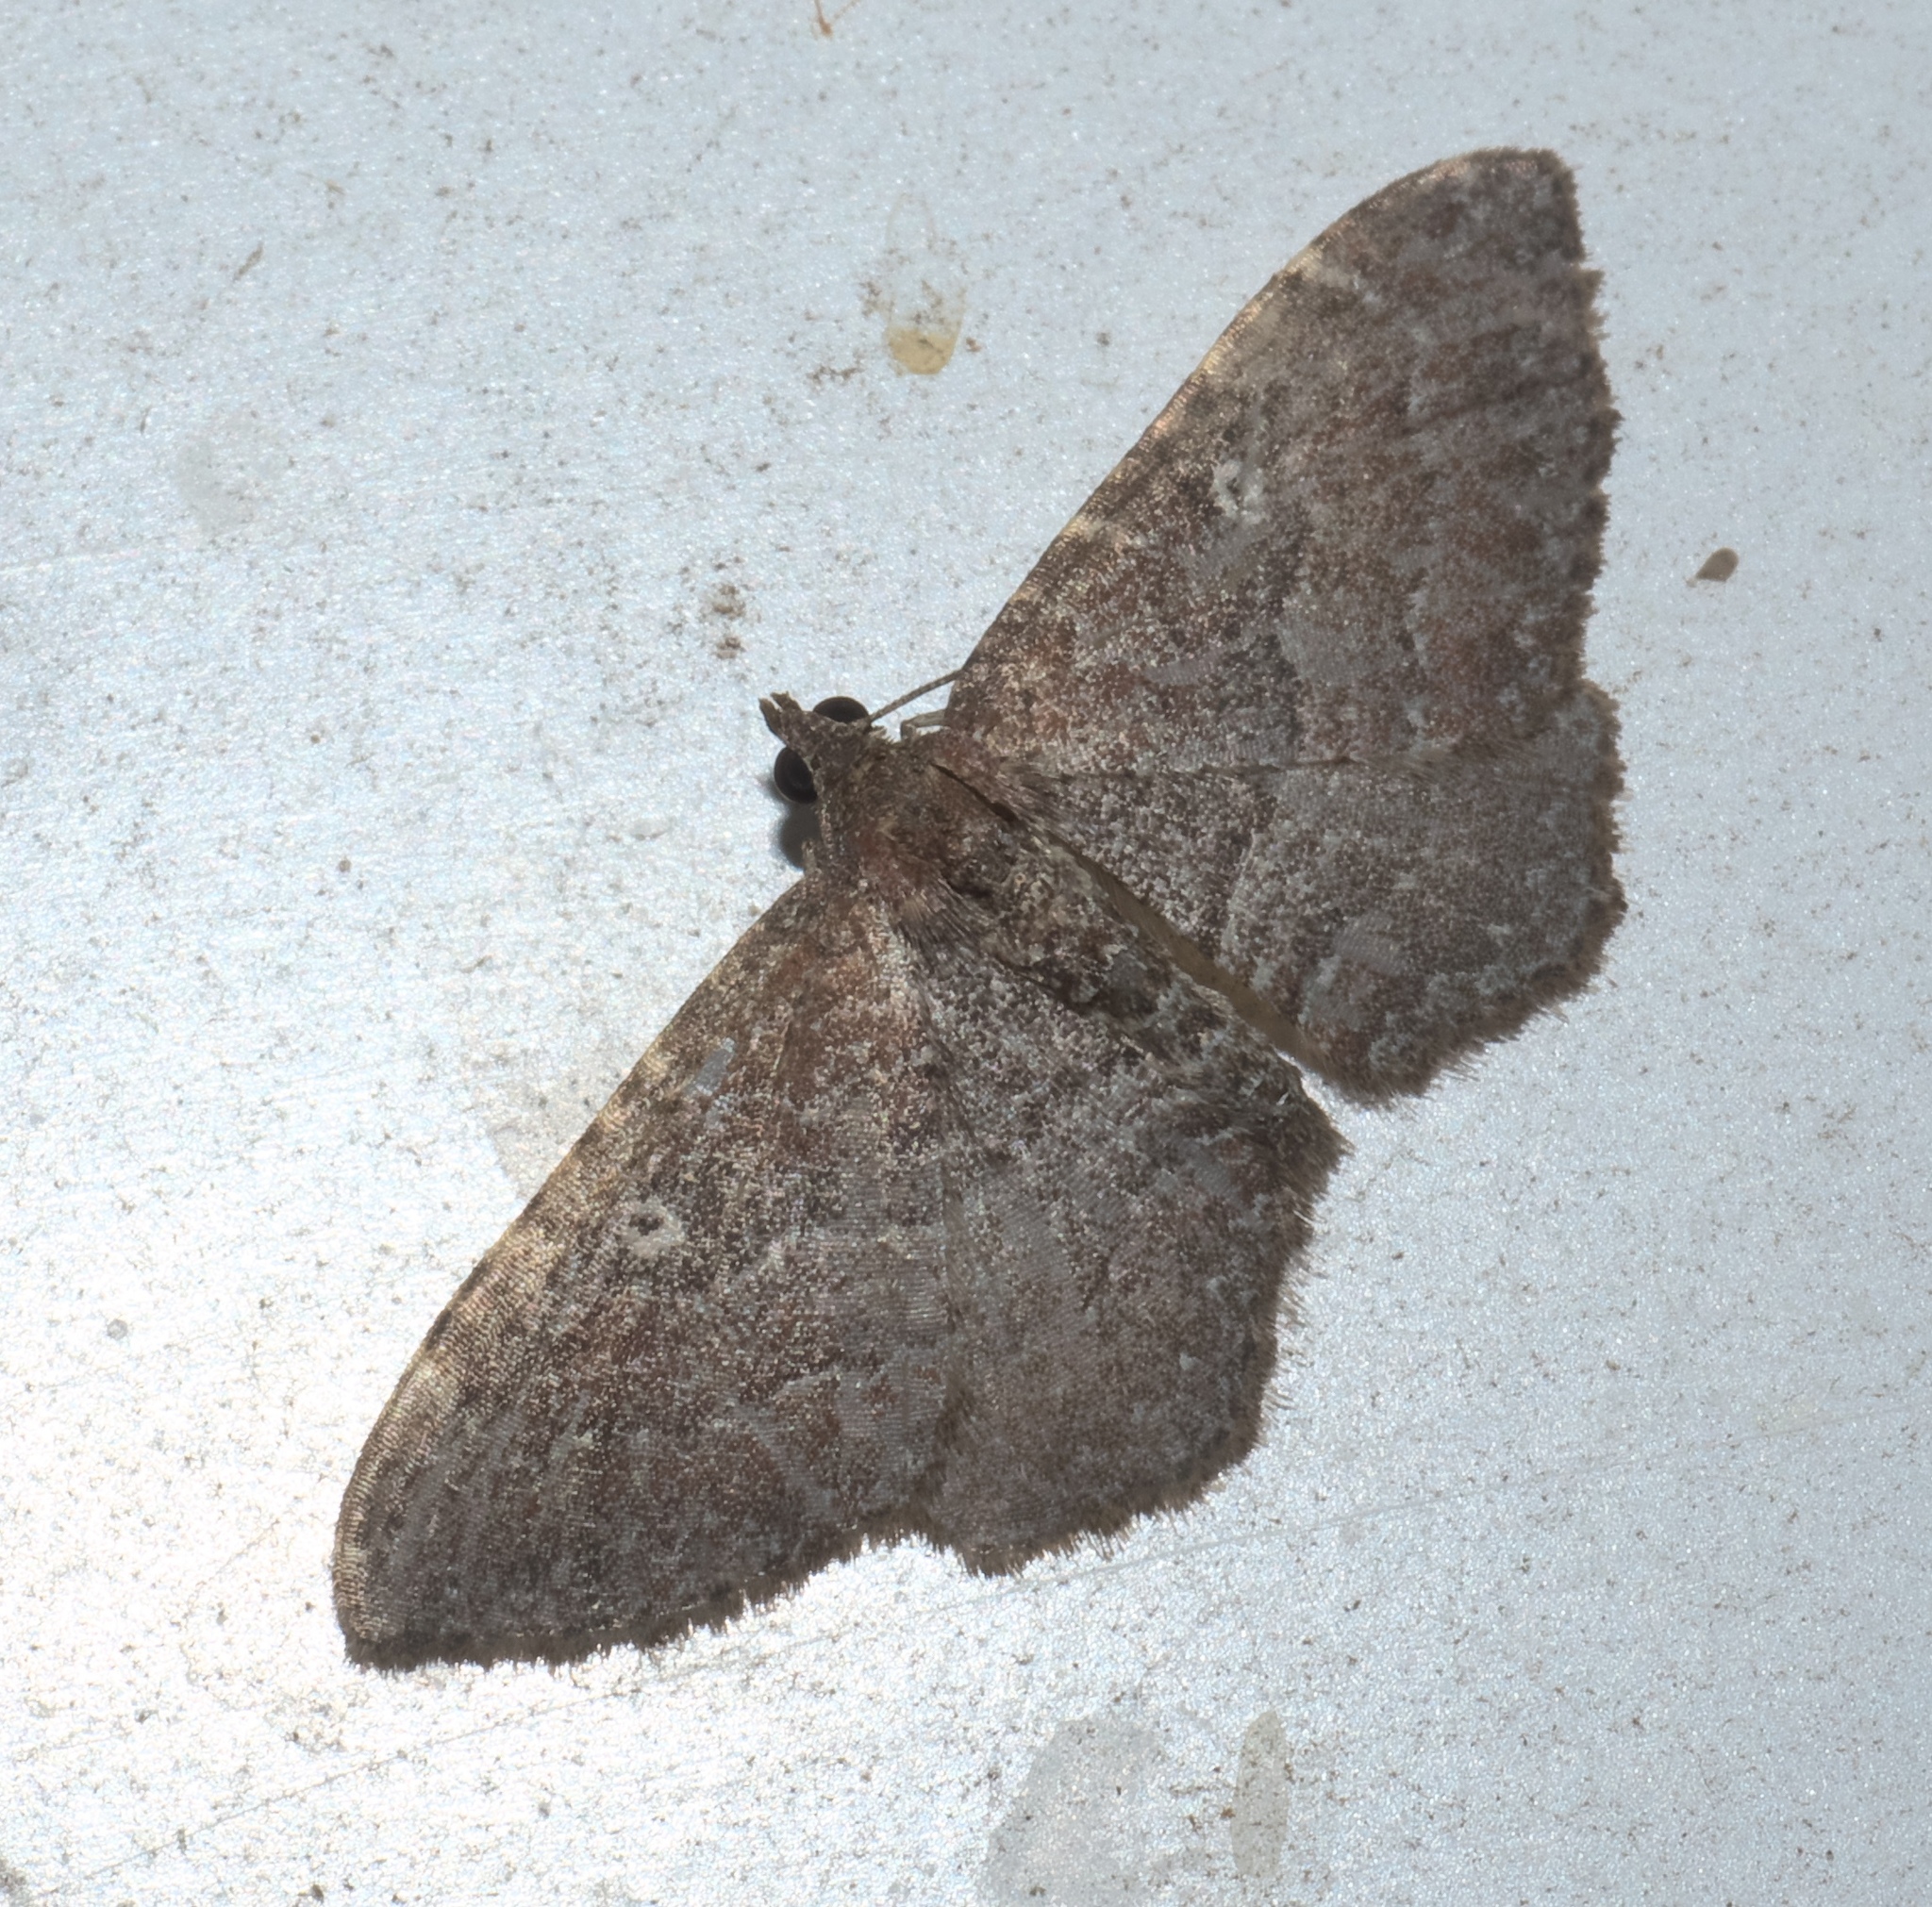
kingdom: Animalia
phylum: Arthropoda
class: Insecta
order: Lepidoptera
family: Geometridae
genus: Orthonama
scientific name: Orthonama obstipata
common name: The gem
